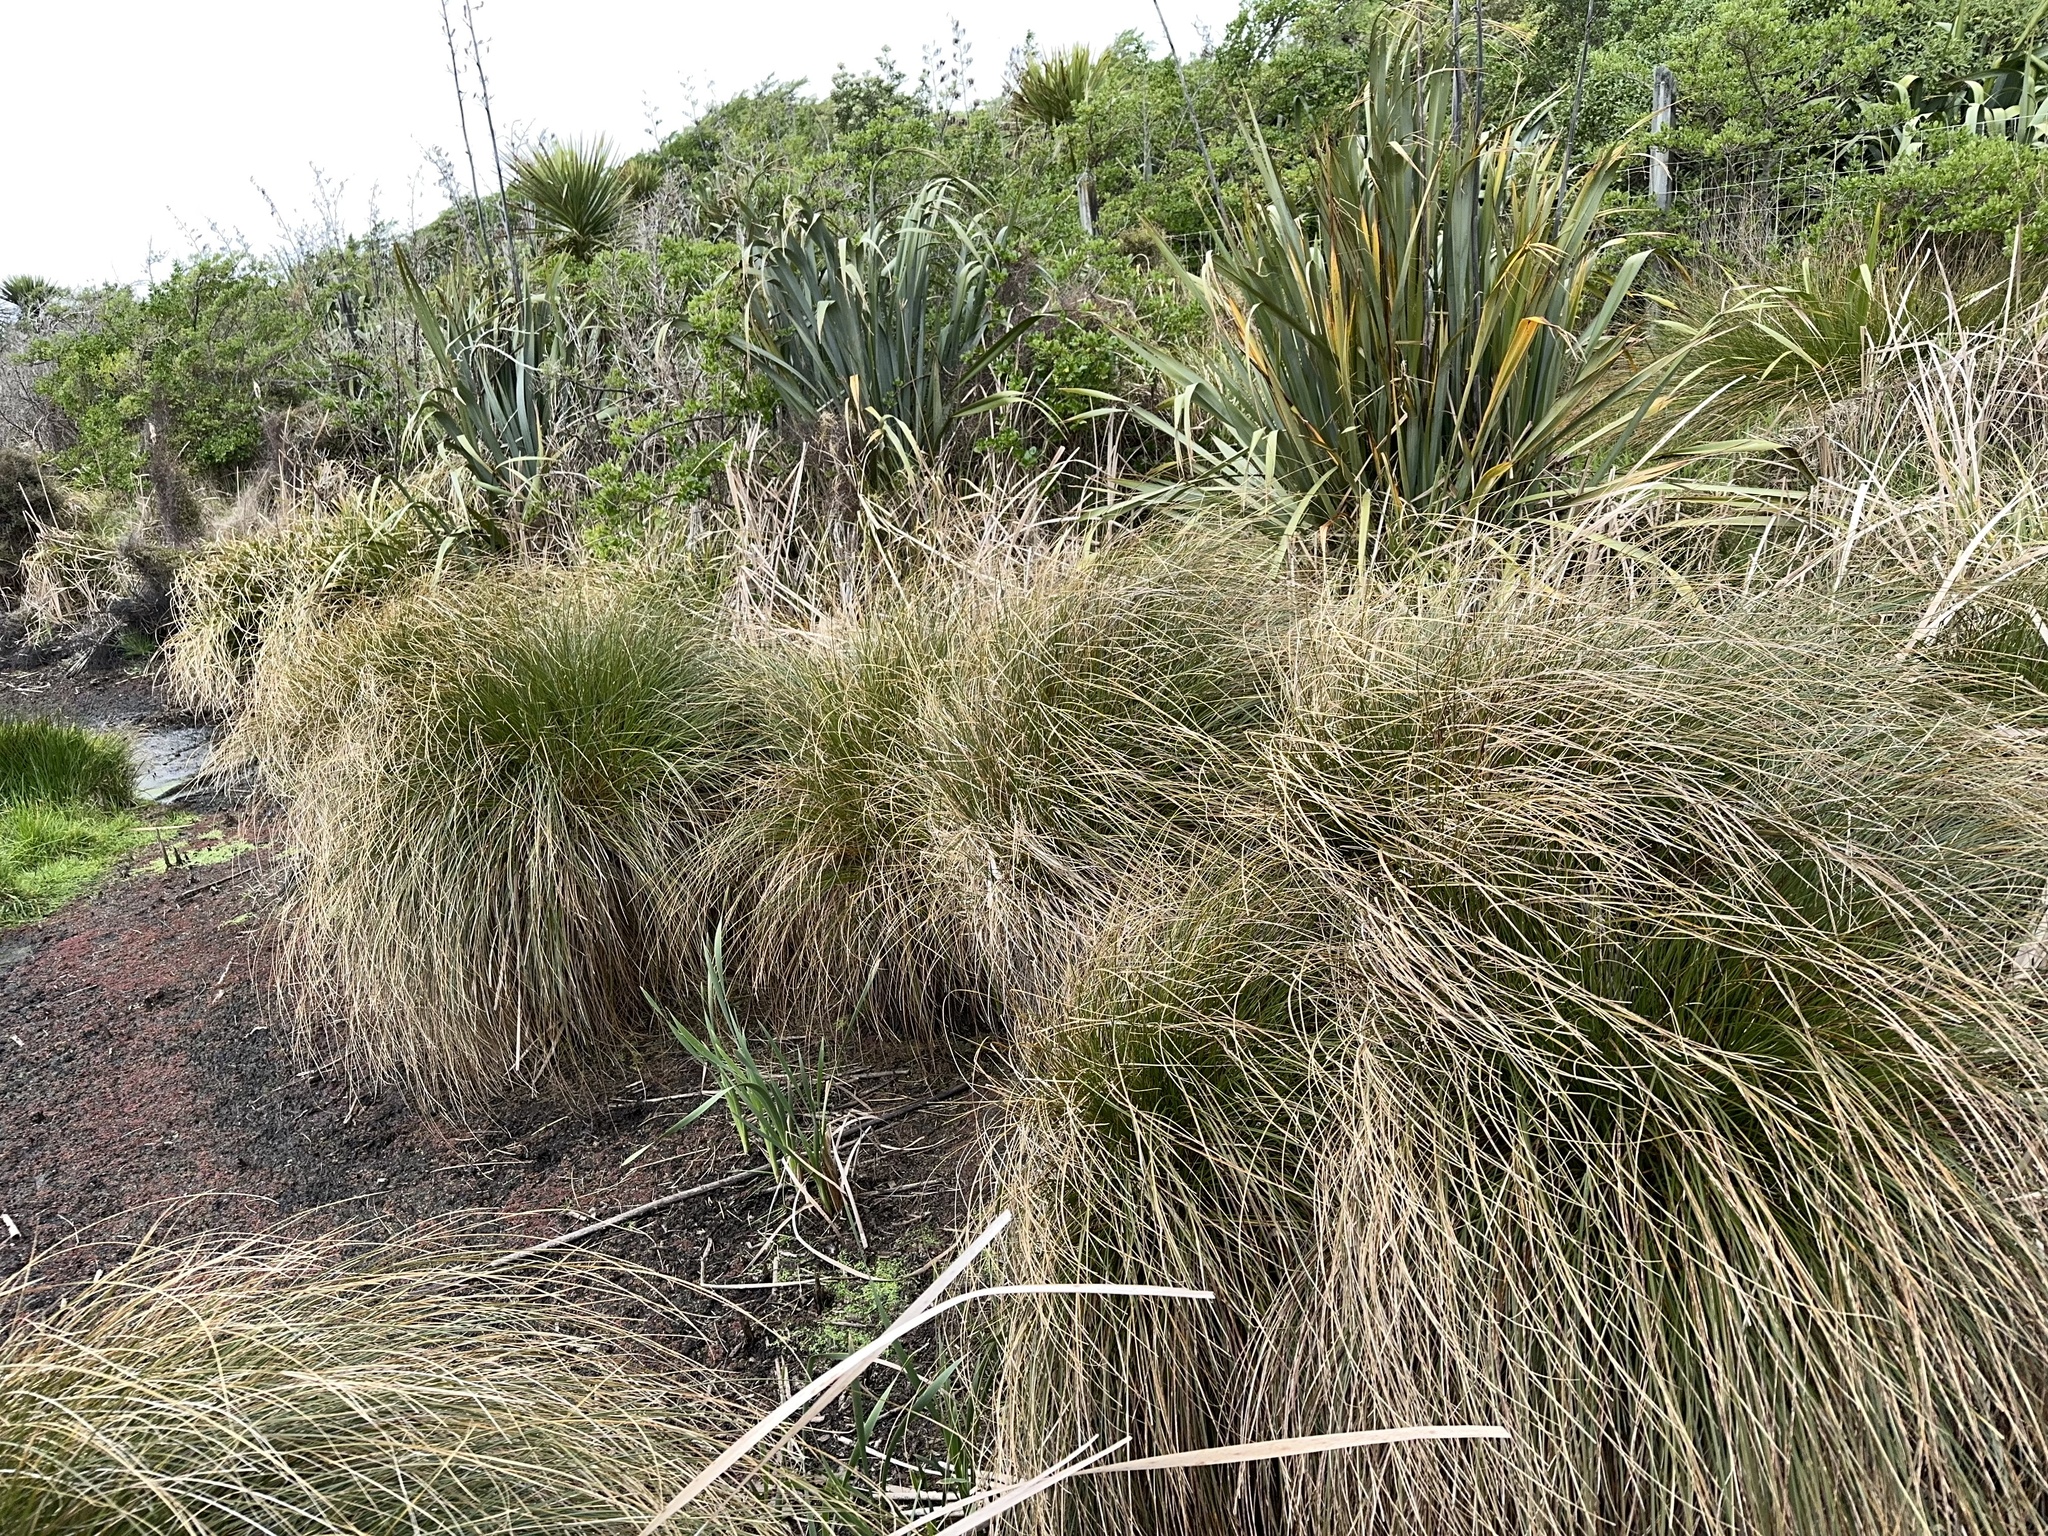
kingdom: Plantae
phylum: Tracheophyta
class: Liliopsida
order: Poales
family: Cyperaceae
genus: Carex
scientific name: Carex secta
